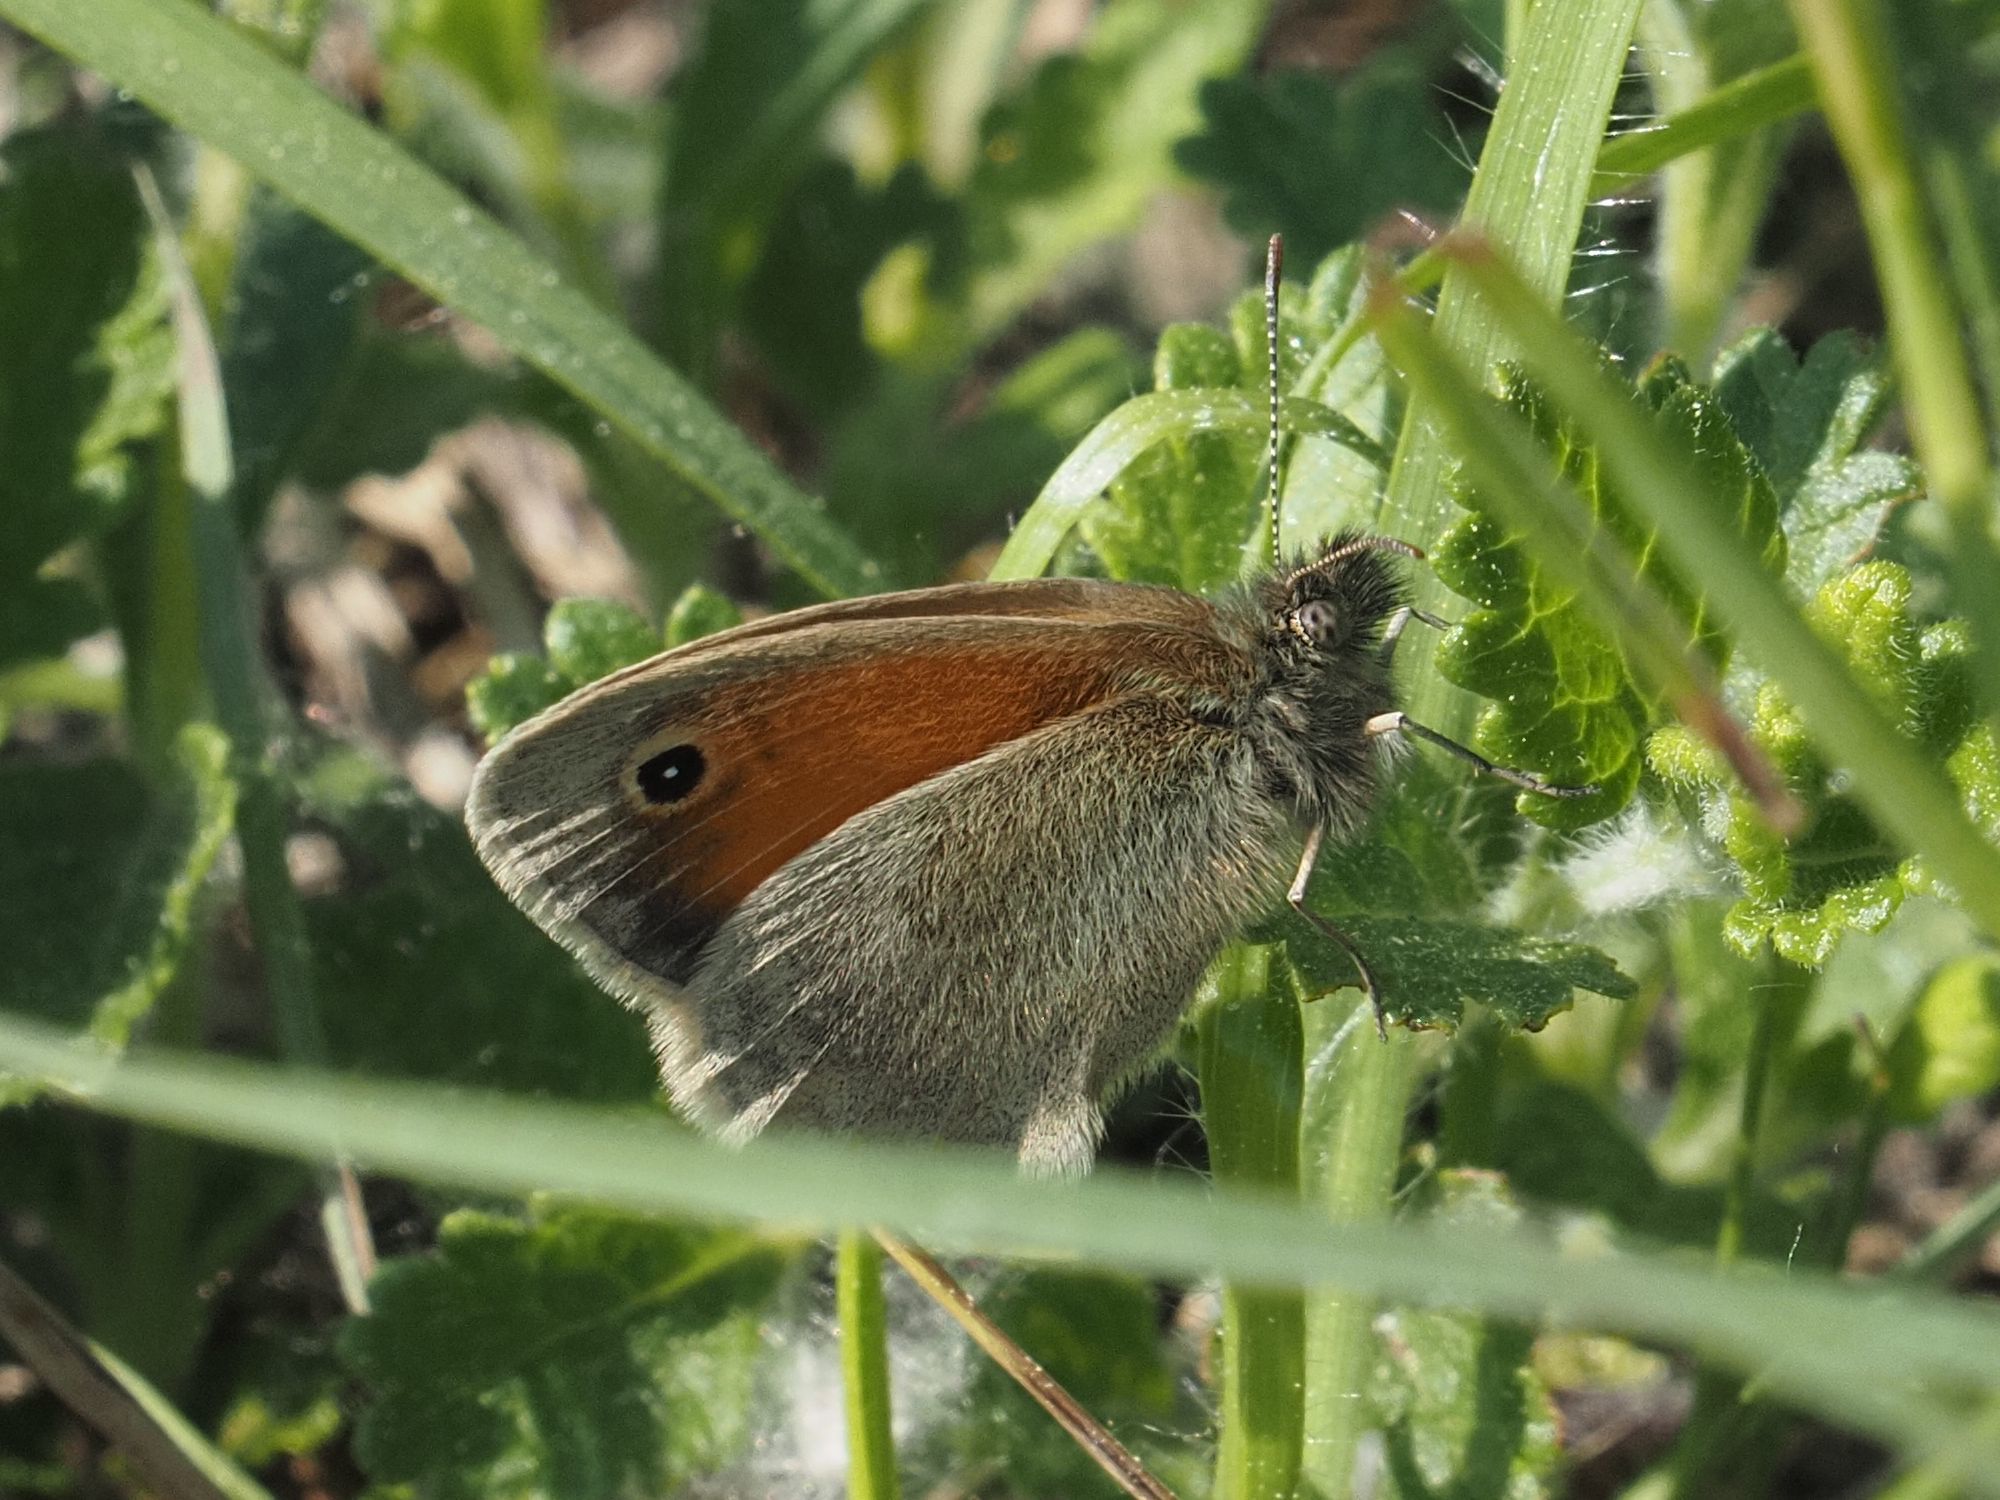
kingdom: Animalia
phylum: Arthropoda
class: Insecta
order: Lepidoptera
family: Nymphalidae
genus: Coenonympha
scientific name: Coenonympha pamphilus
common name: Small heath
